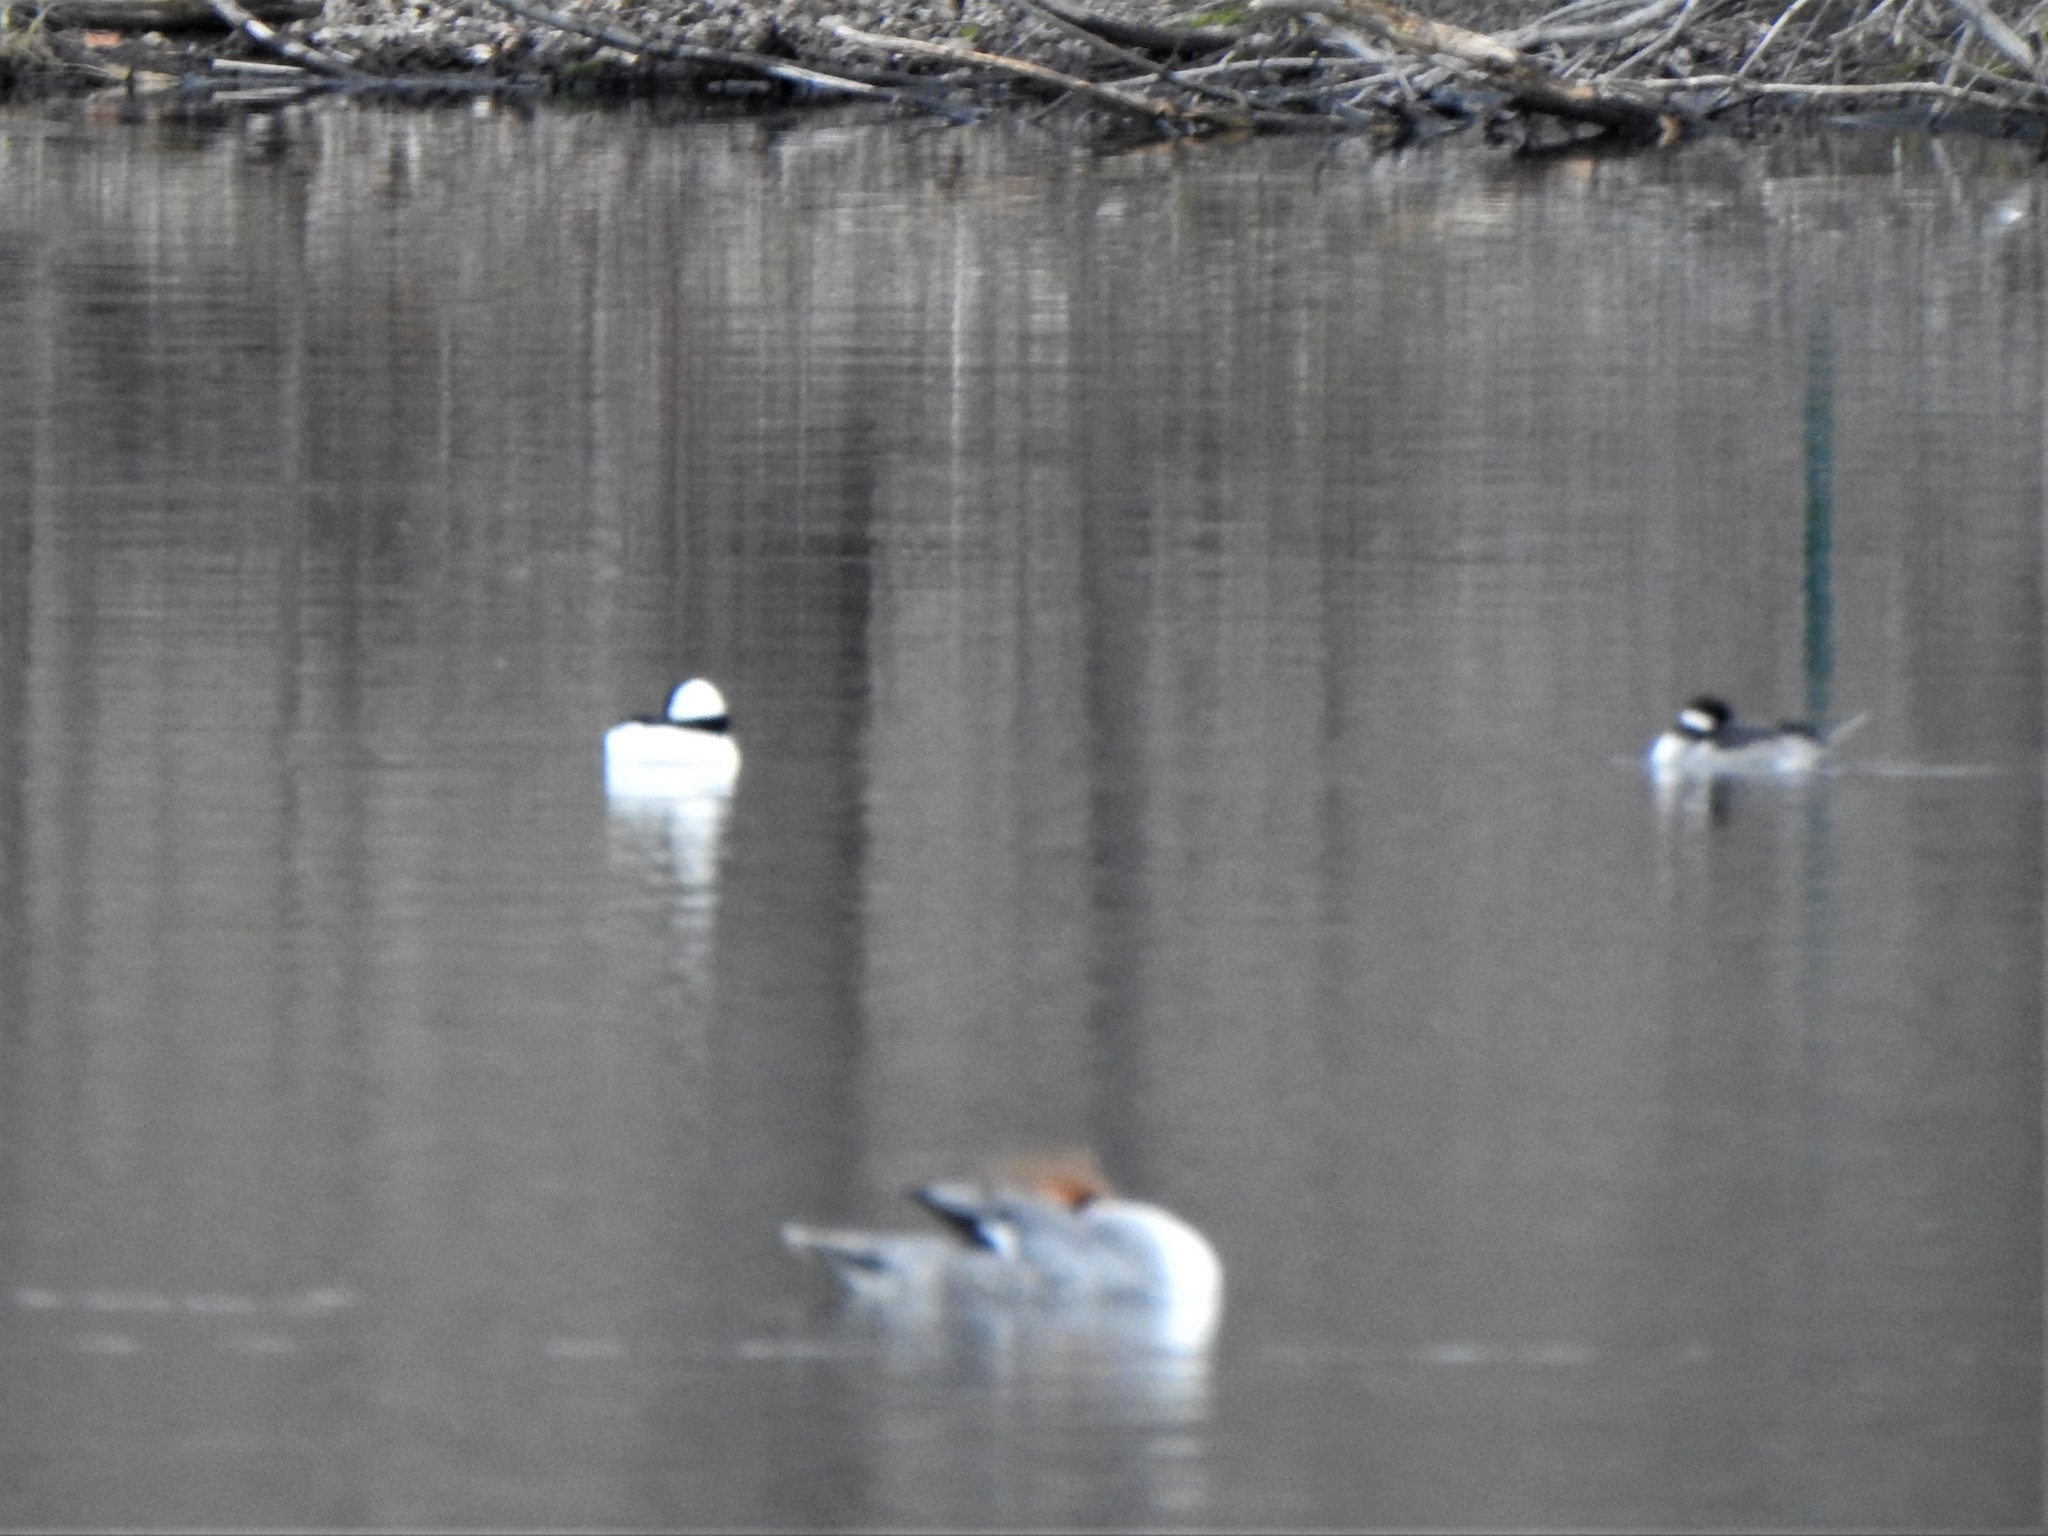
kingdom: Animalia
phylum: Chordata
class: Aves
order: Anseriformes
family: Anatidae
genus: Bucephala
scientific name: Bucephala albeola
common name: Bufflehead
